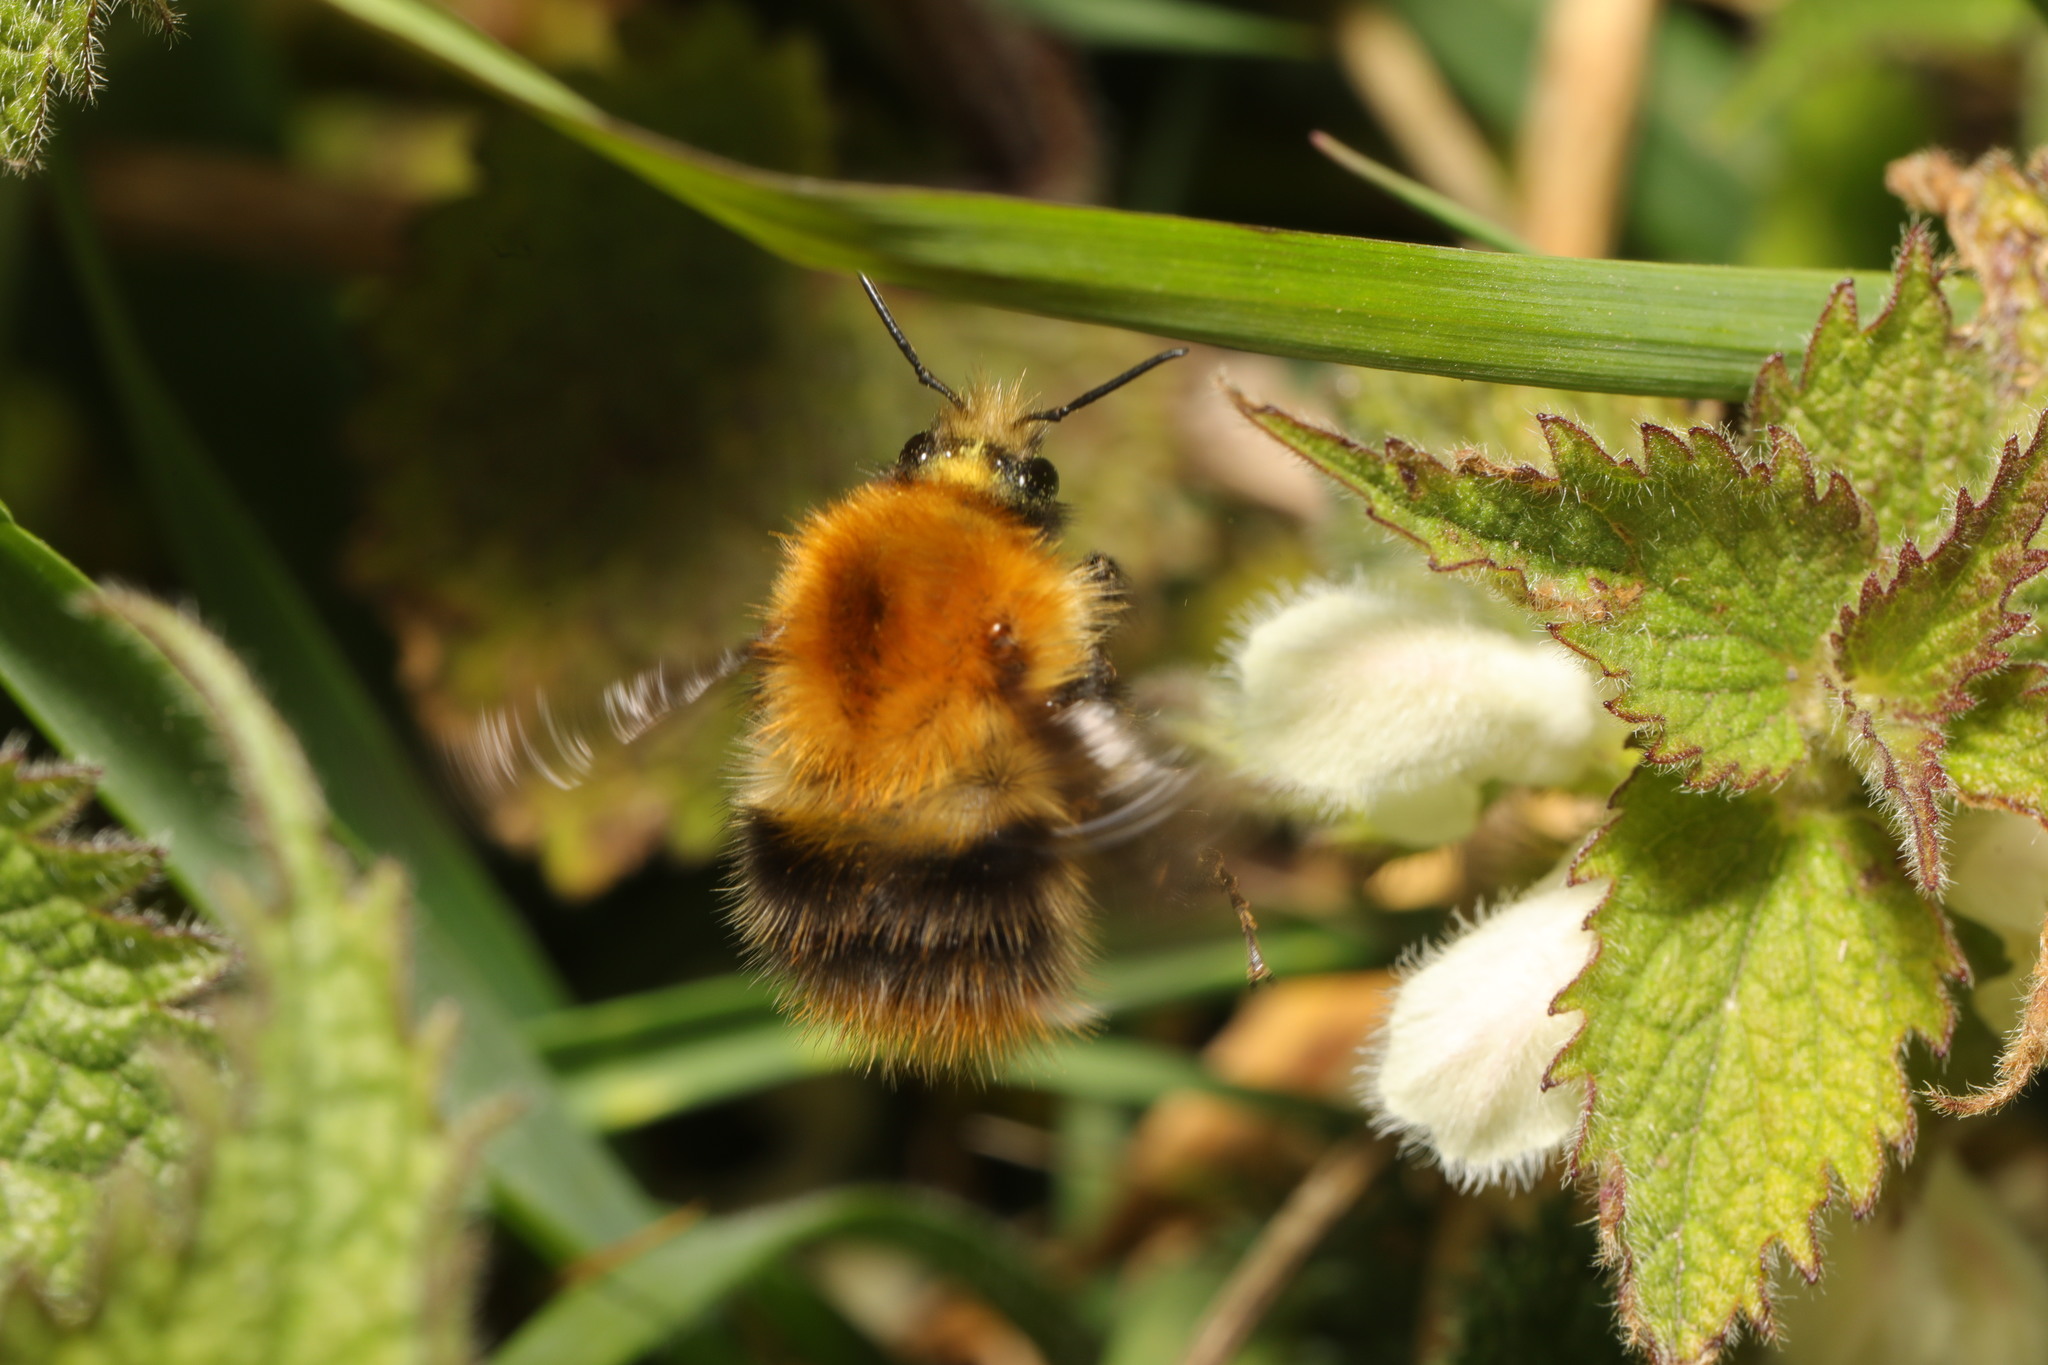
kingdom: Animalia
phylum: Arthropoda
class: Insecta
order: Hymenoptera
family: Apidae
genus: Bombus
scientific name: Bombus pascuorum
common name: Common carder bee
